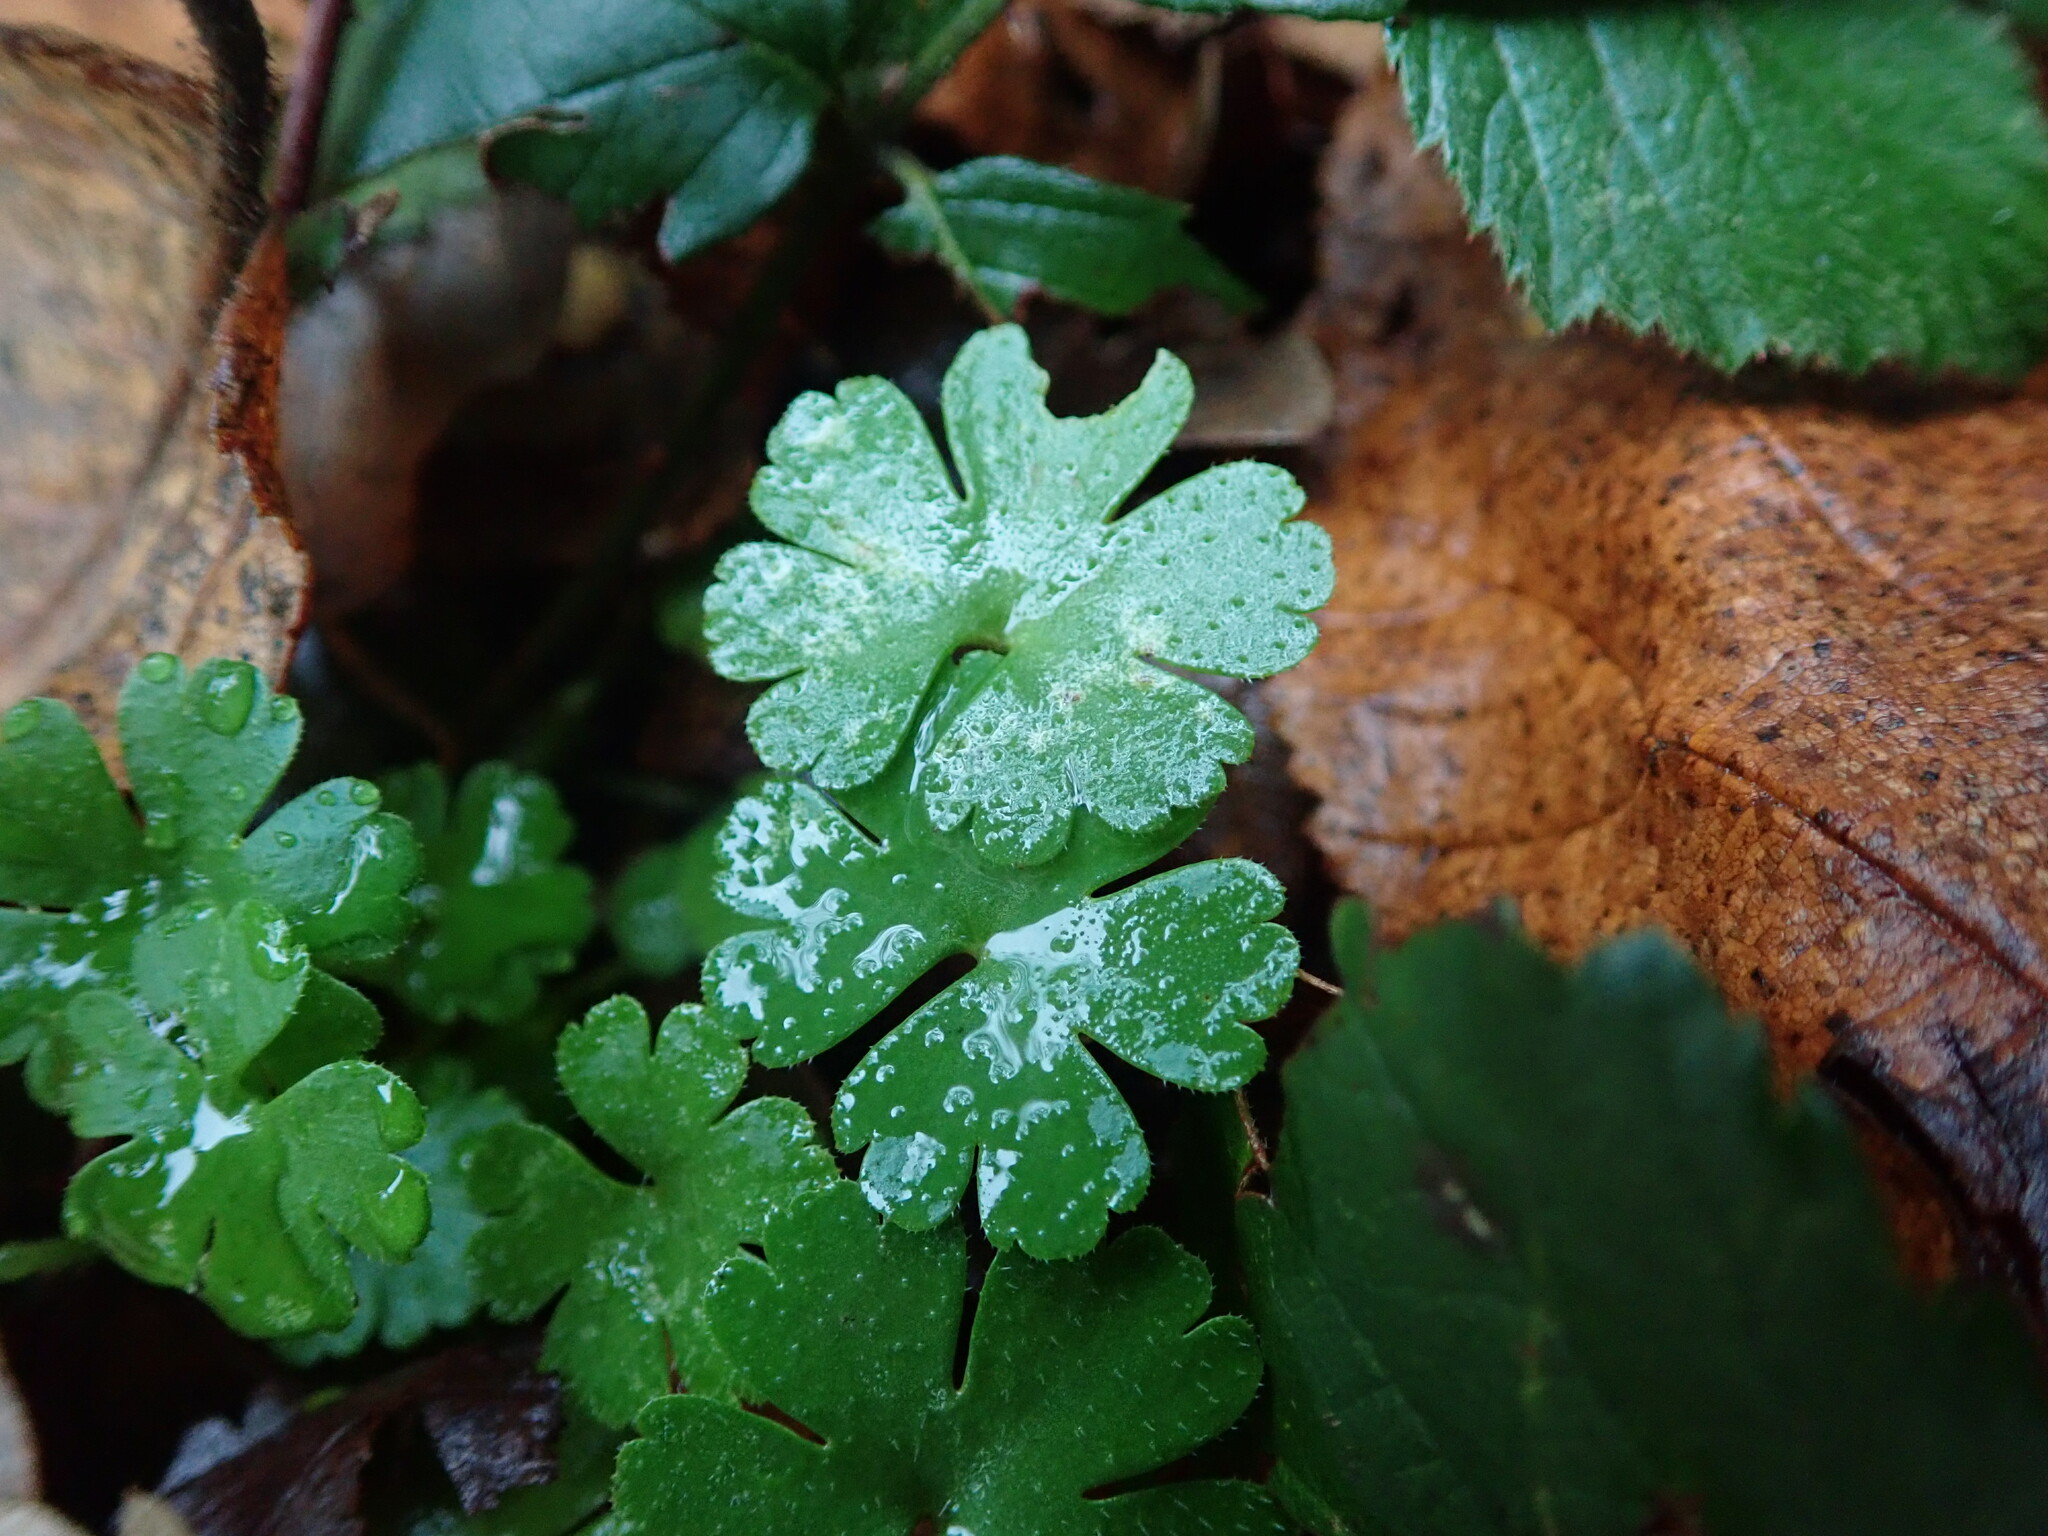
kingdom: Plantae
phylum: Tracheophyta
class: Magnoliopsida
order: Geraniales
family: Geraniaceae
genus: Geranium
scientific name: Geranium lucidum
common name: Shining crane's-bill
